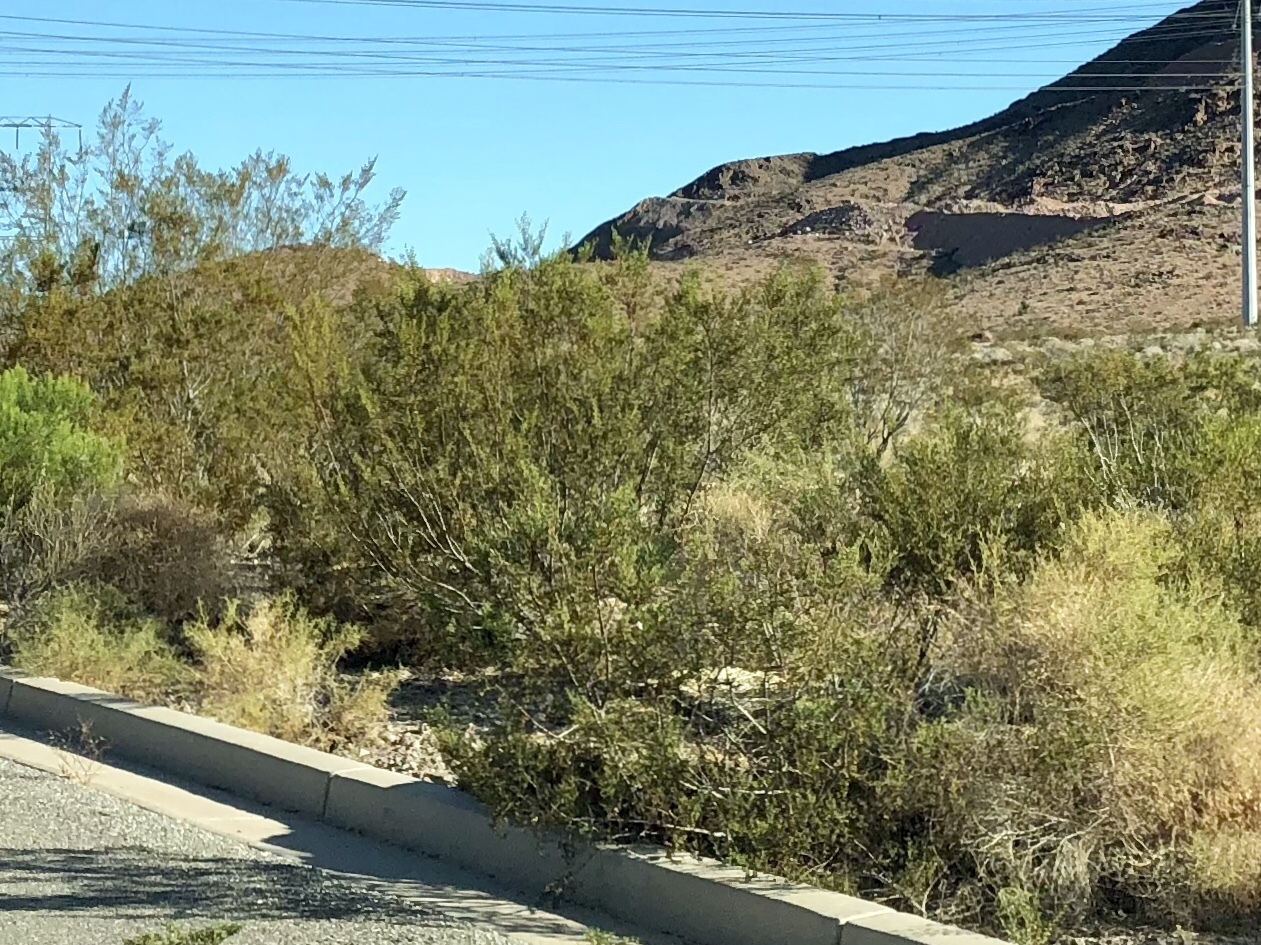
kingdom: Plantae
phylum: Tracheophyta
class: Magnoliopsida
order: Zygophyllales
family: Zygophyllaceae
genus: Larrea
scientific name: Larrea tridentata
